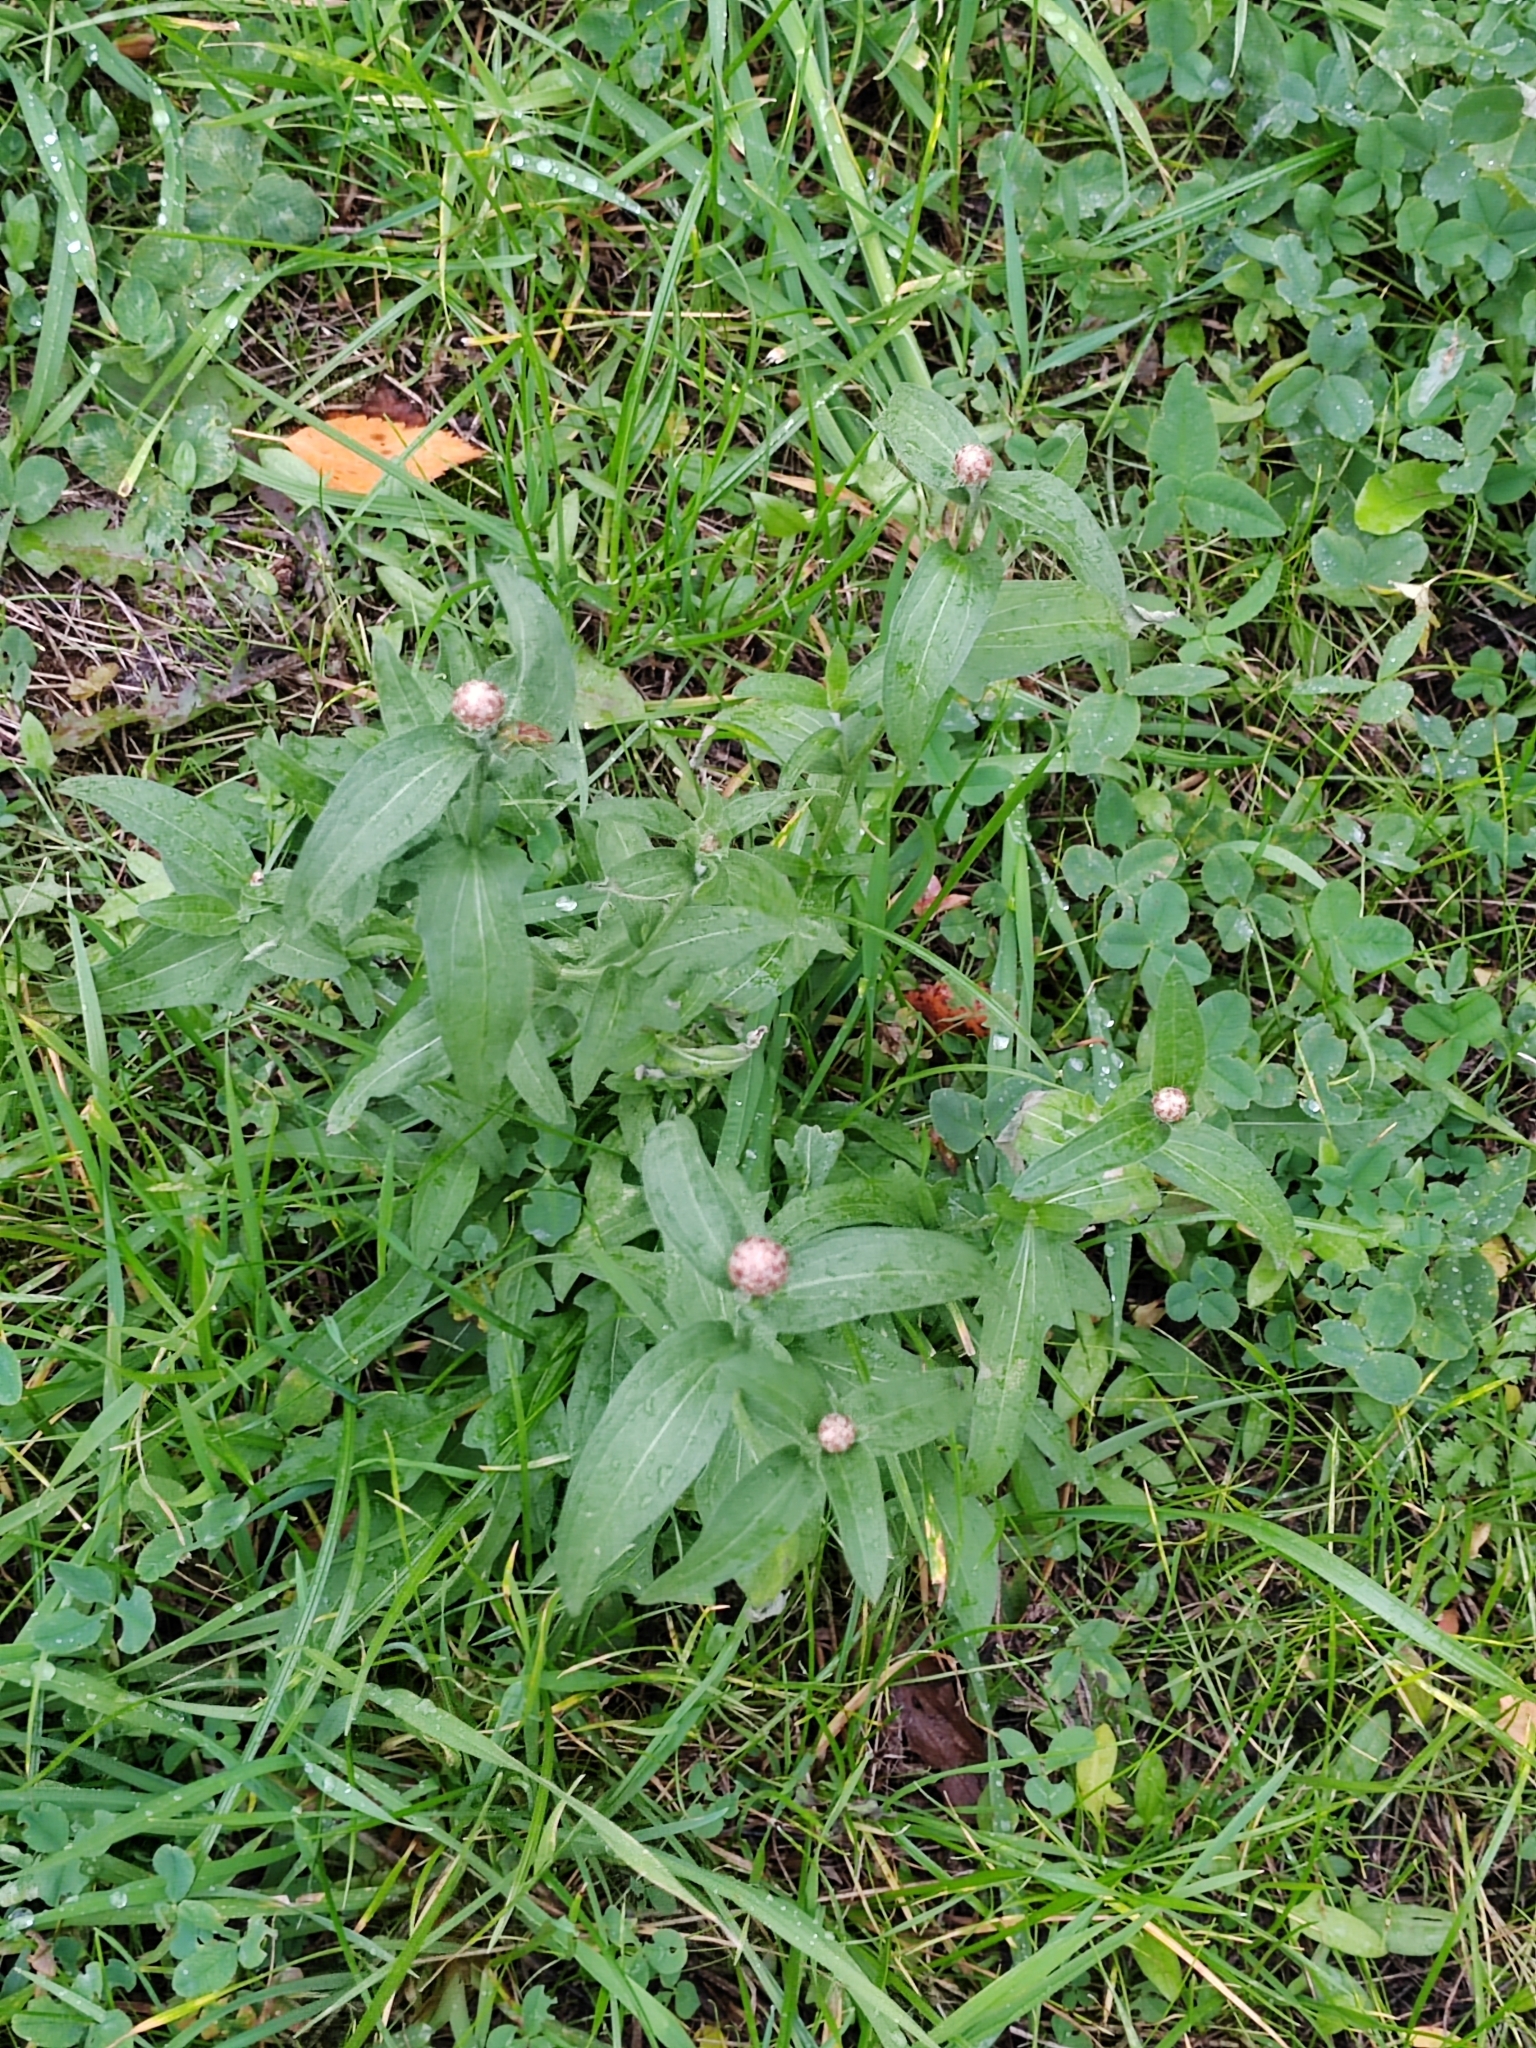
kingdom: Plantae
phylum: Tracheophyta
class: Magnoliopsida
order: Asterales
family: Asteraceae
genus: Centaurea
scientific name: Centaurea jacea
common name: Brown knapweed
